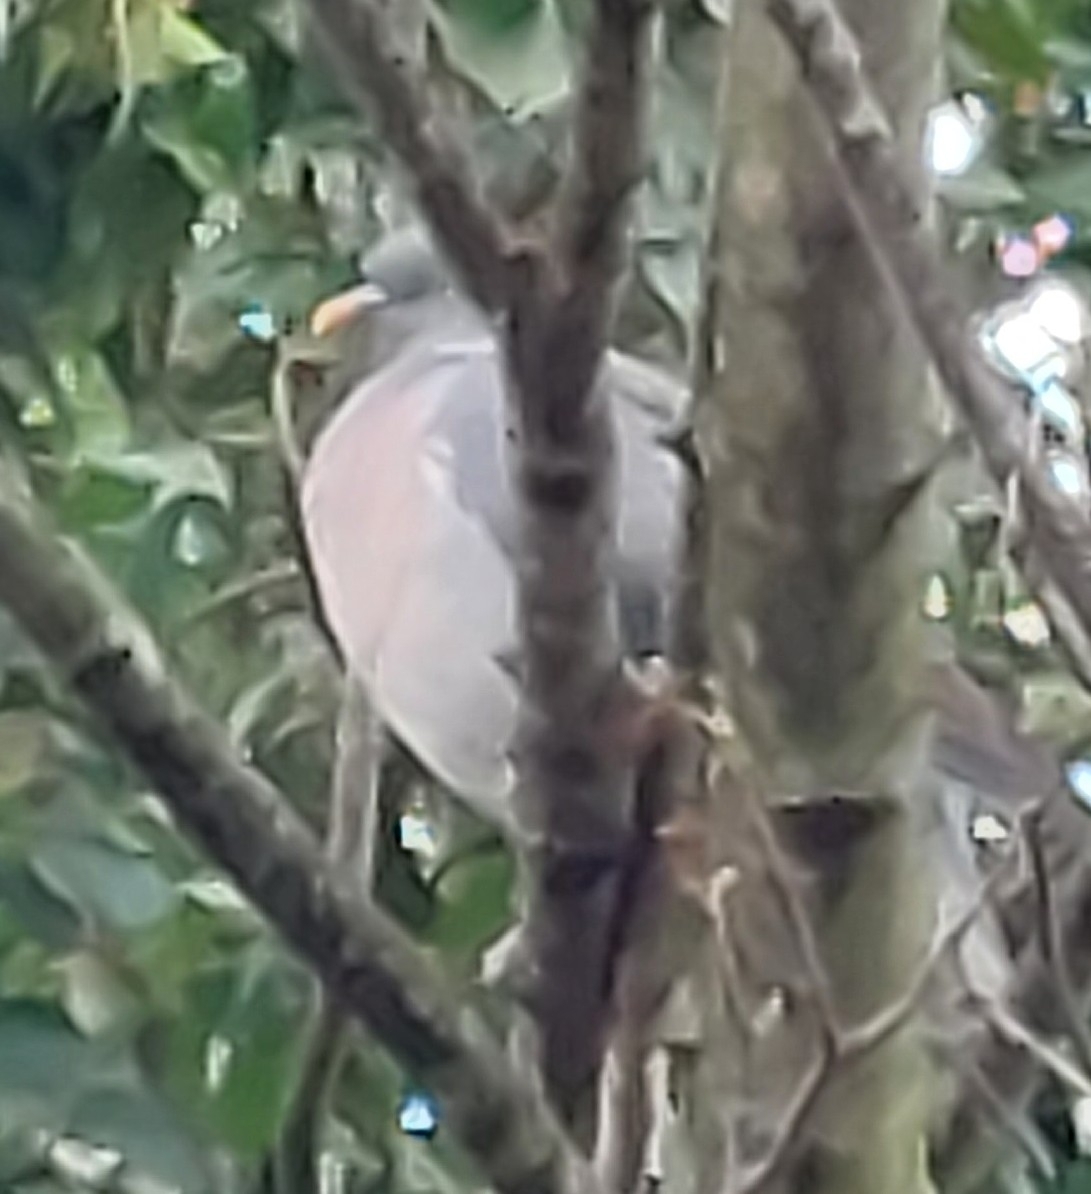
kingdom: Animalia
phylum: Chordata
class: Aves
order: Columbiformes
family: Columbidae
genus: Columba
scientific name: Columba palumbus
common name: Common wood pigeon
